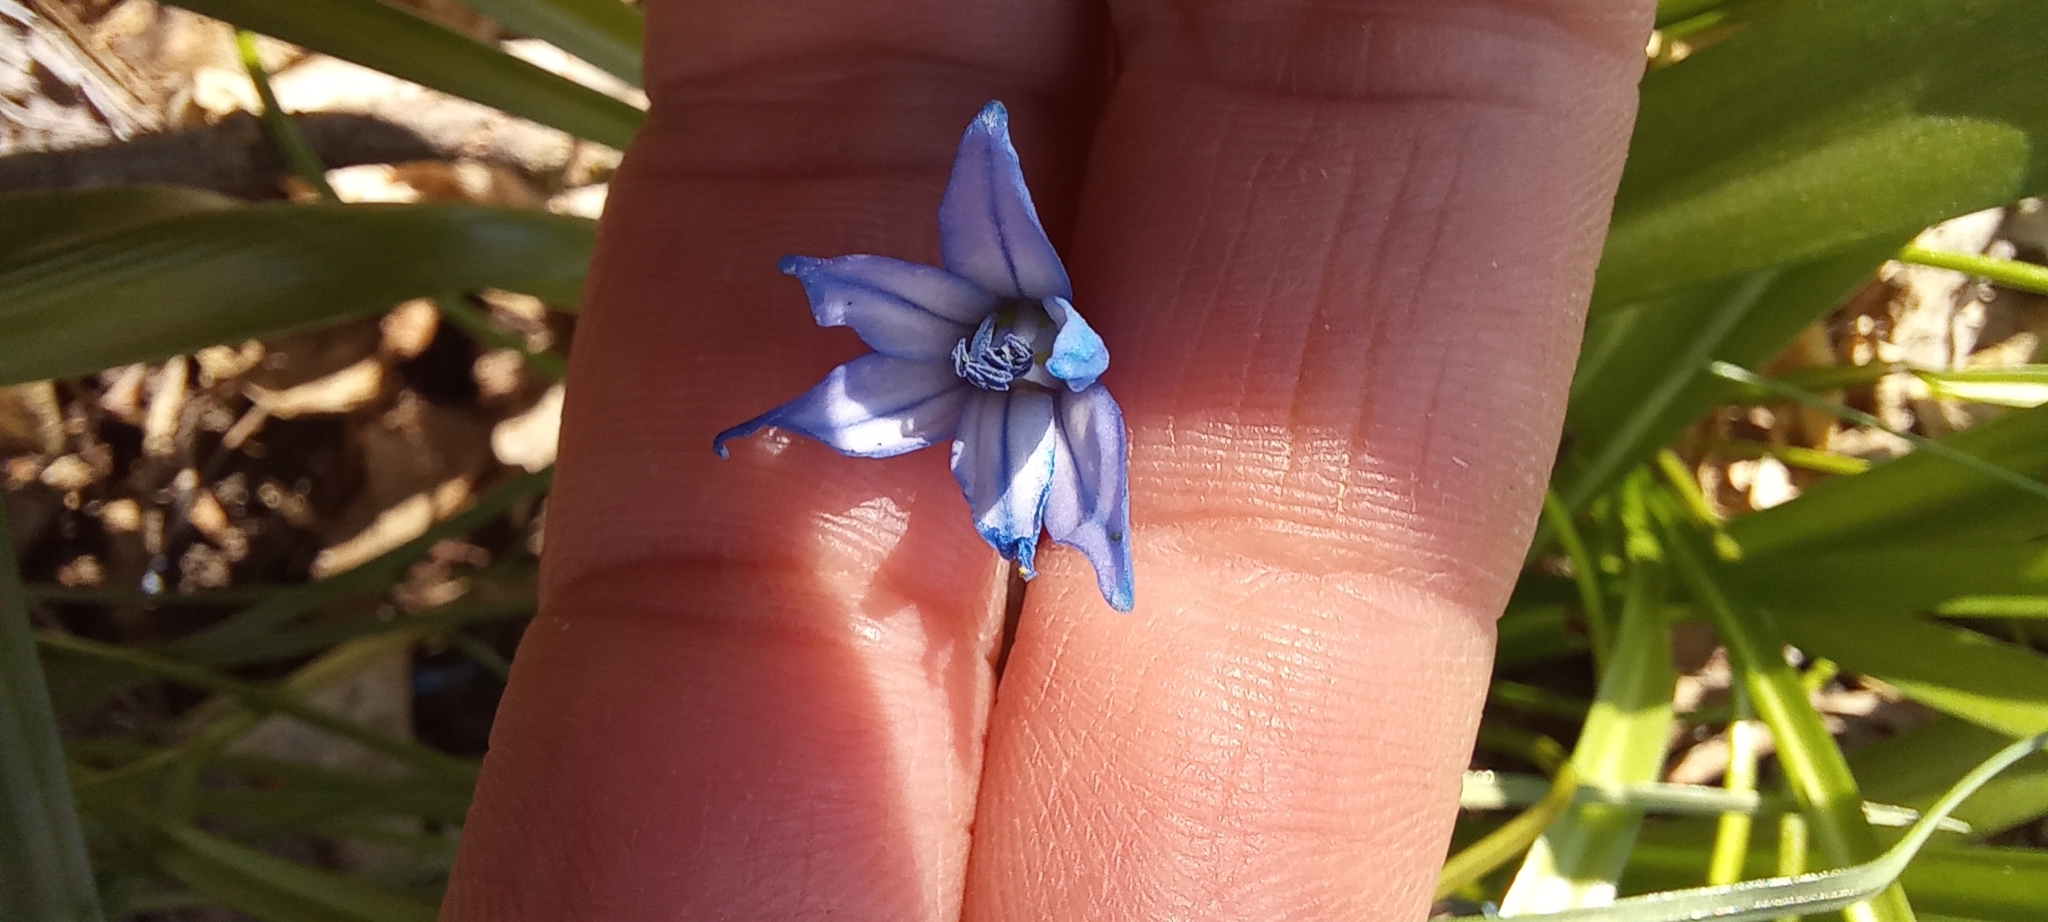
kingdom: Plantae
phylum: Tracheophyta
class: Liliopsida
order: Asparagales
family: Asparagaceae
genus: Scilla
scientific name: Scilla siberica
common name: Siberian squill
